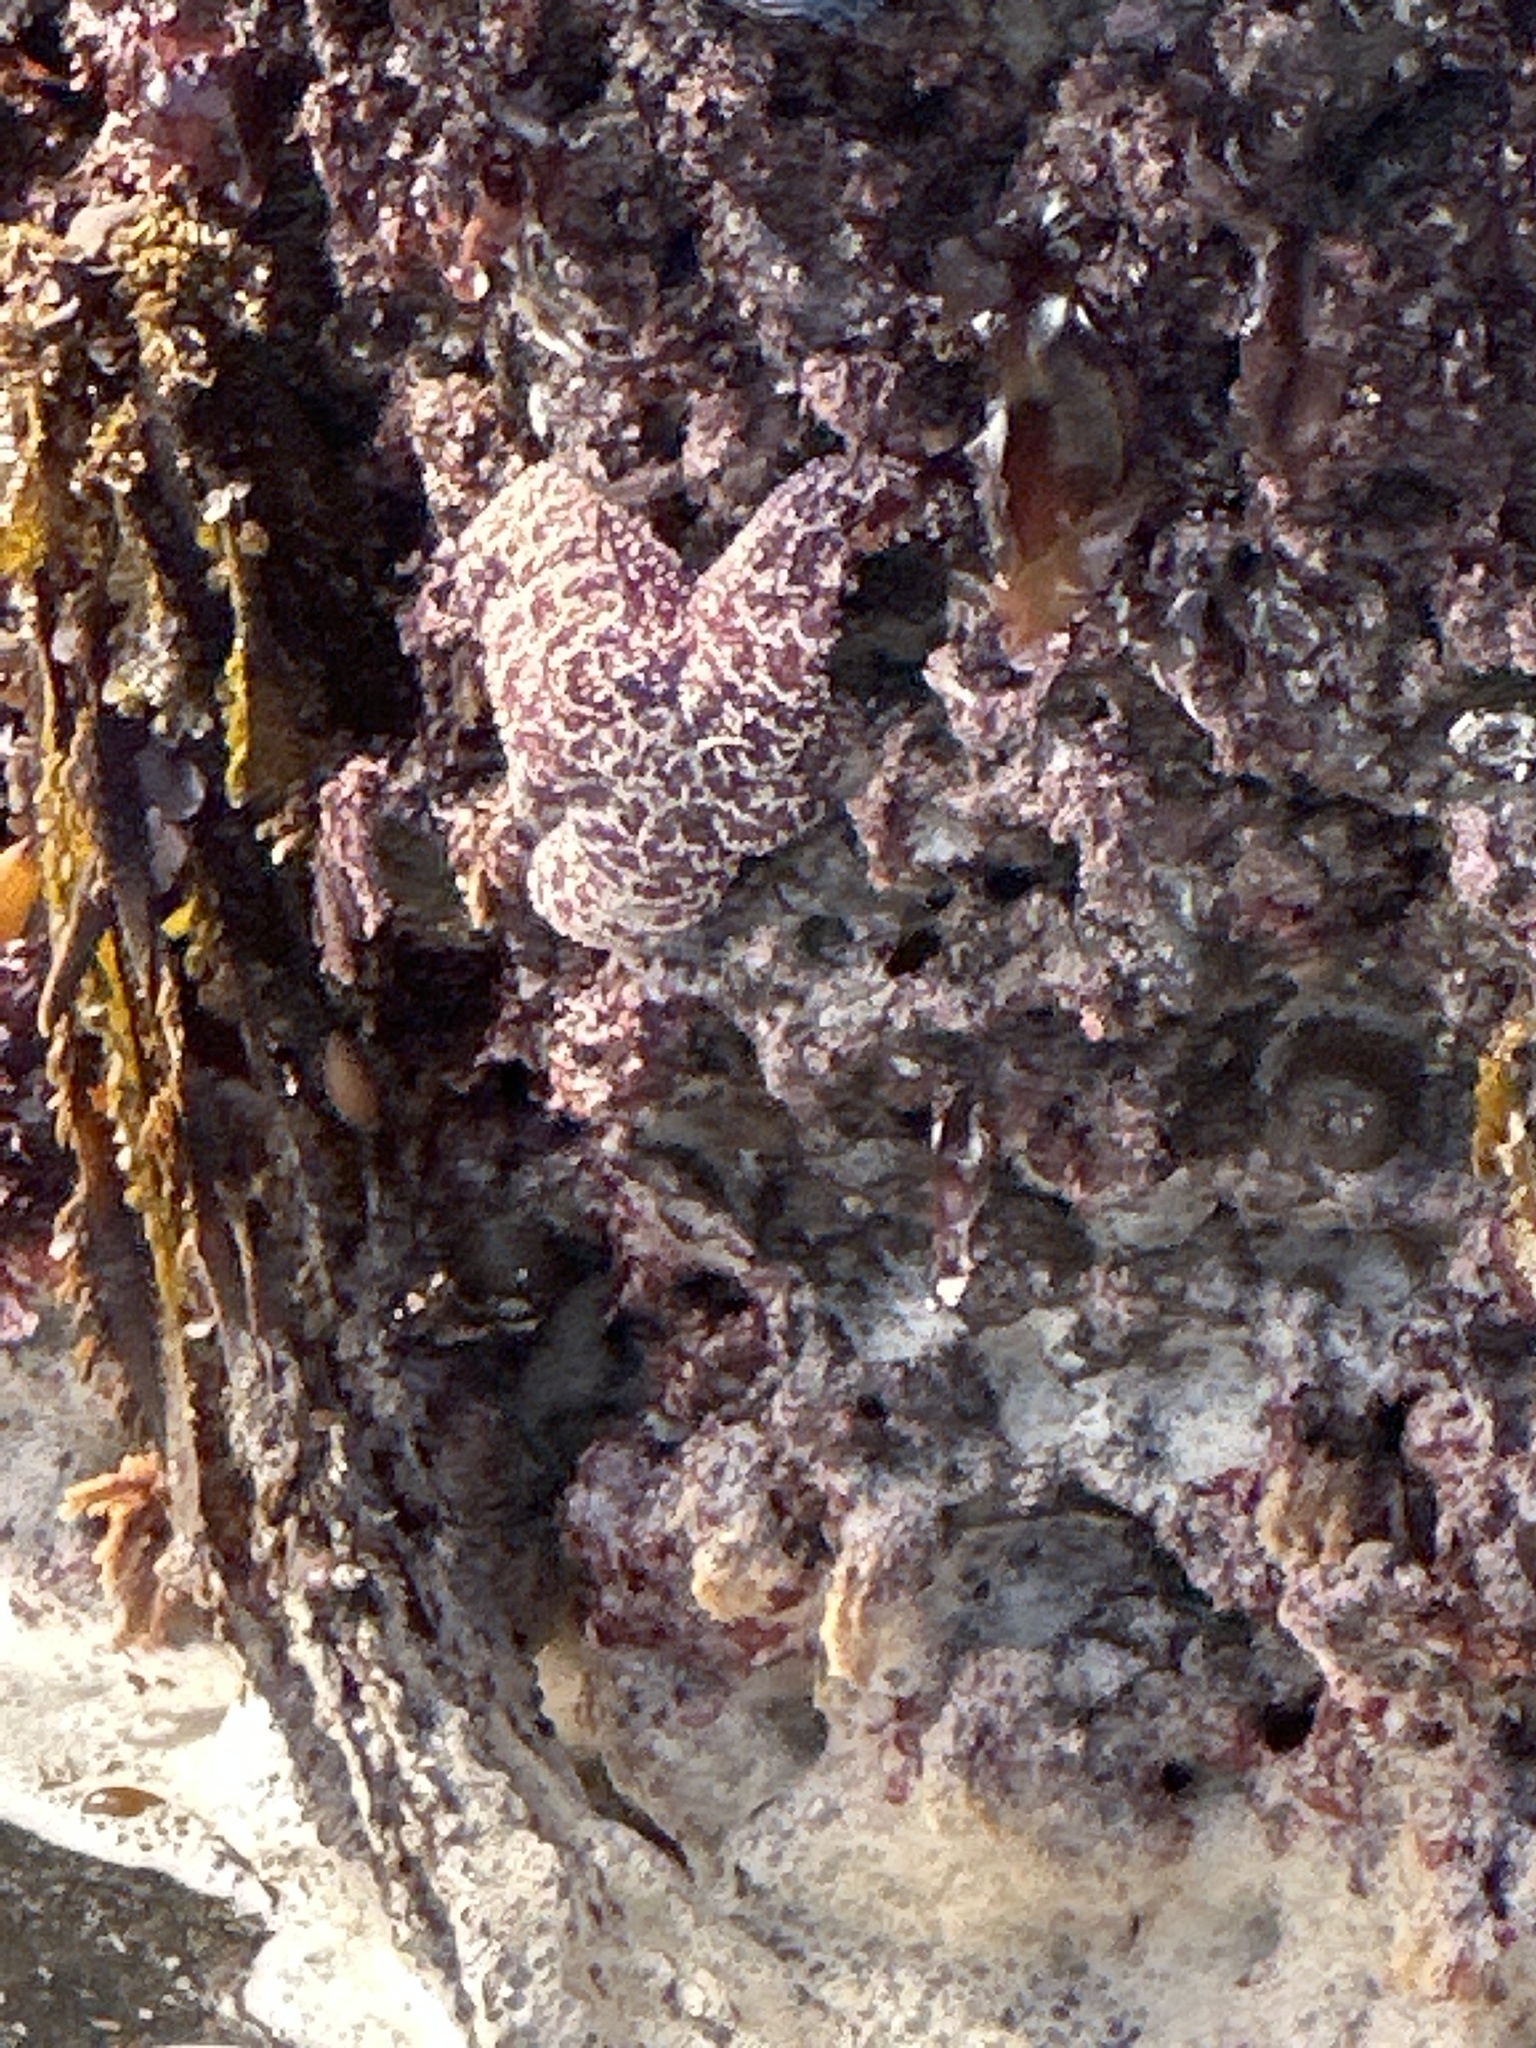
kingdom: Animalia
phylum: Echinodermata
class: Asteroidea
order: Forcipulatida
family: Asteriidae
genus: Pisaster
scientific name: Pisaster ochraceus
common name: Ochre stars
